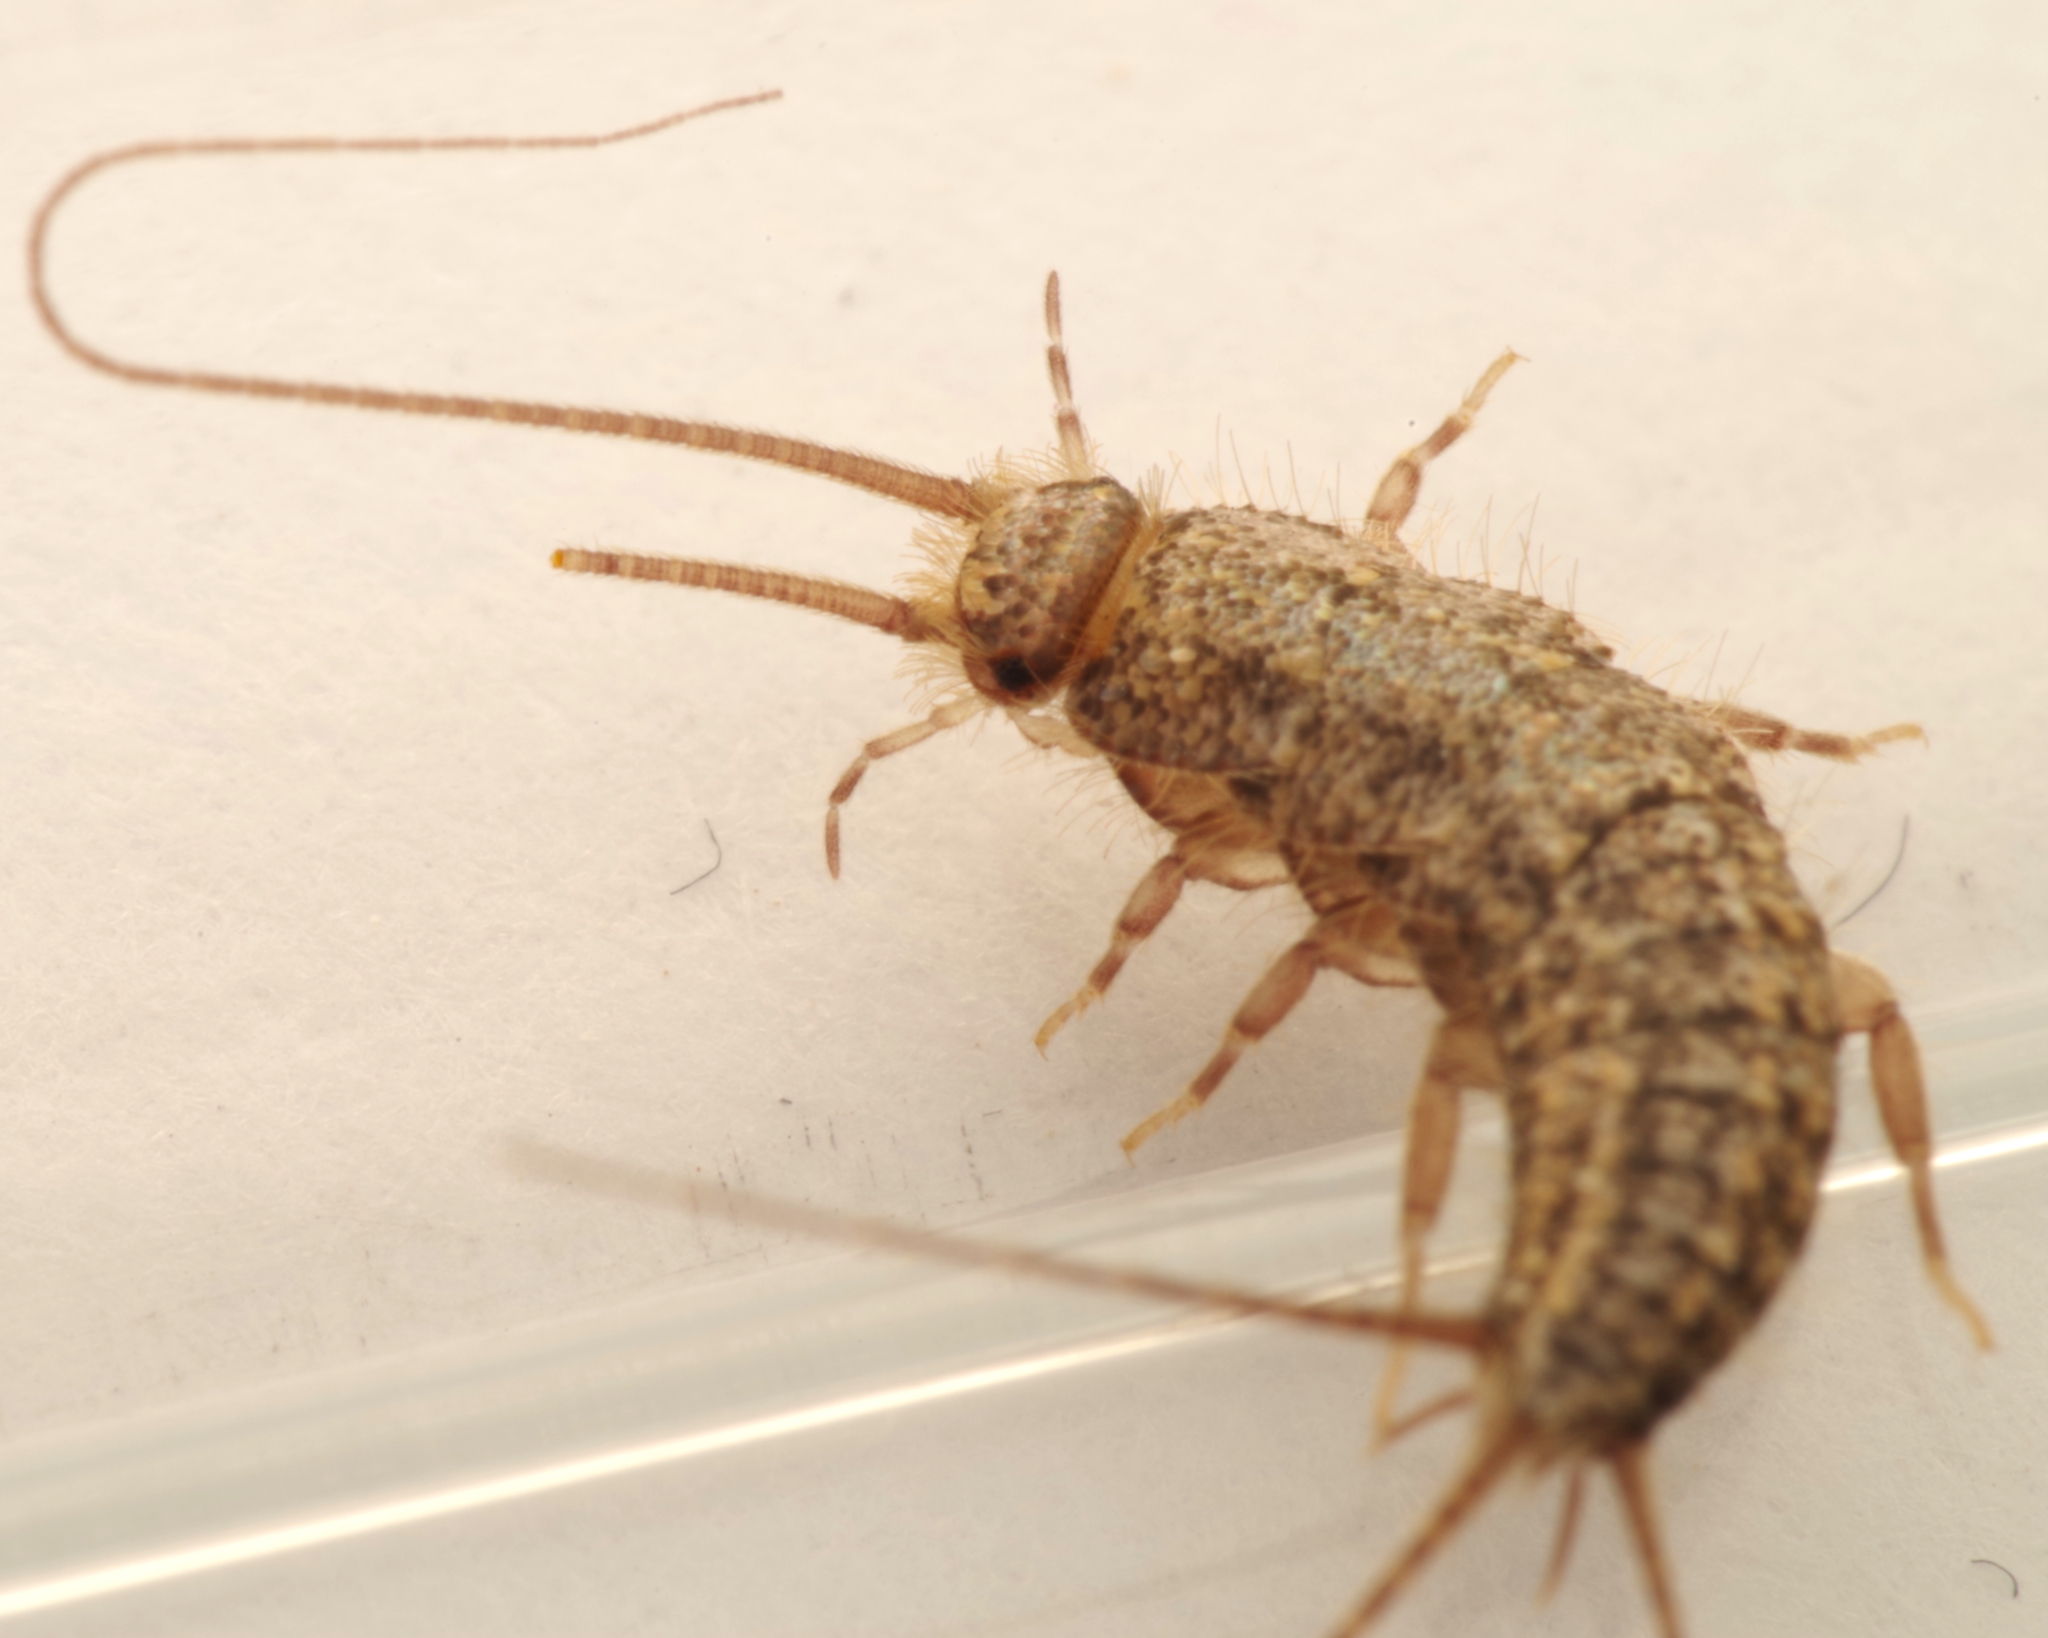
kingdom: Animalia
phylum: Arthropoda
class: Insecta
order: Zygentoma
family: Lepismatidae
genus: Ctenolepisma
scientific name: Ctenolepisma lineata
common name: Four-lined silverfish
